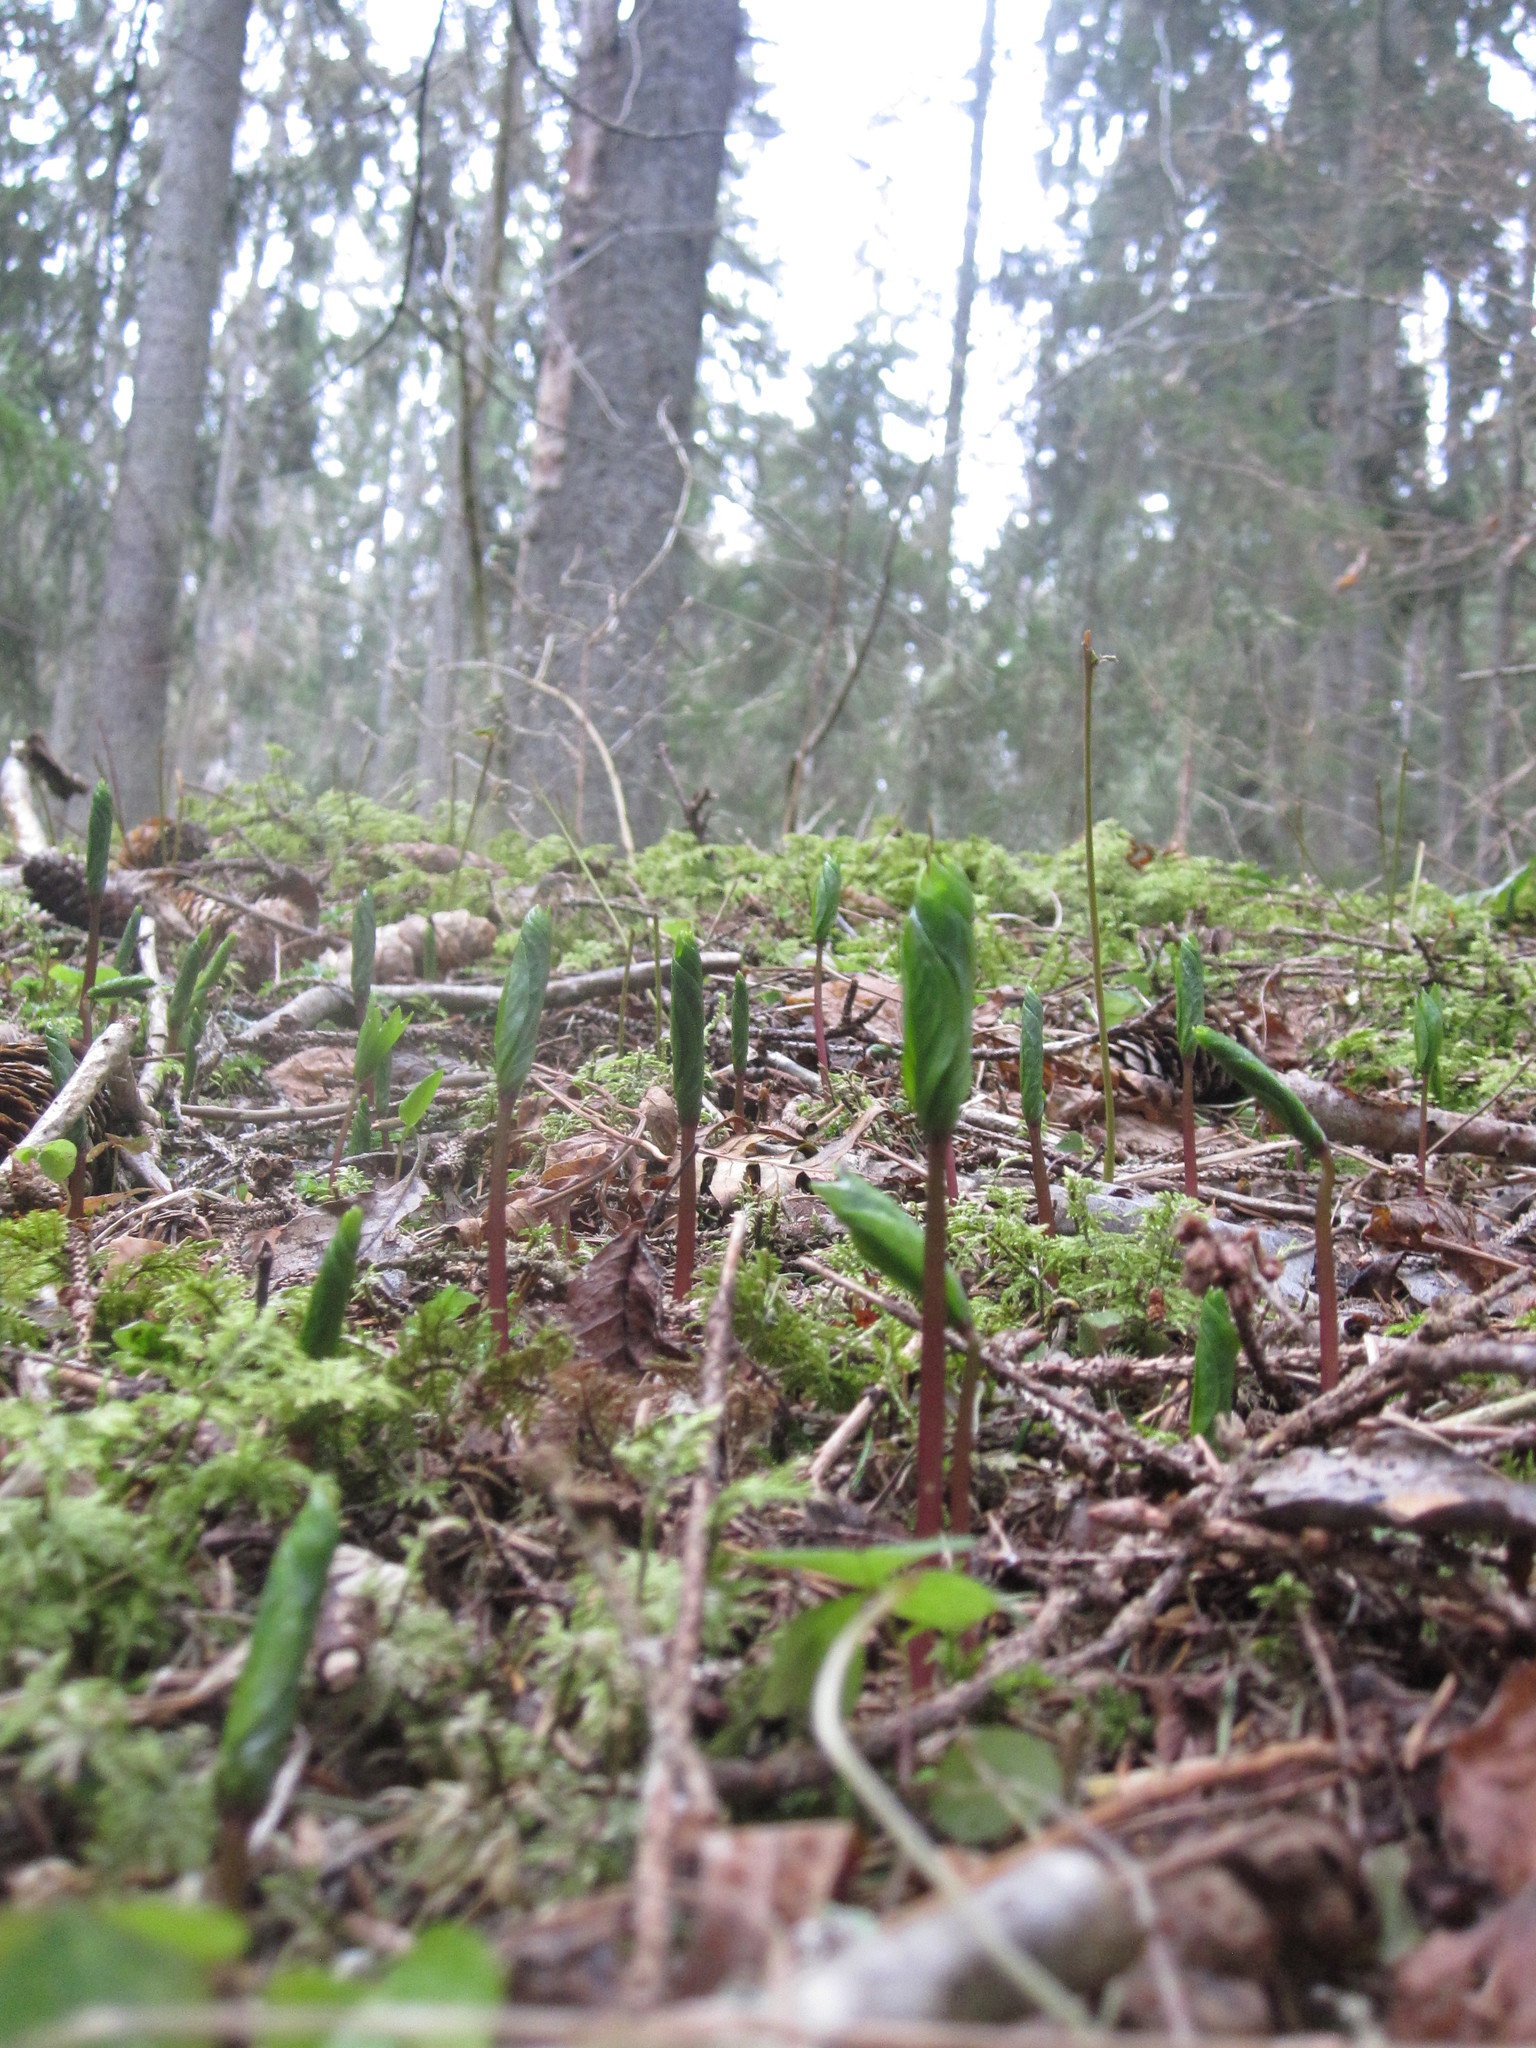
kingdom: Plantae
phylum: Tracheophyta
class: Liliopsida
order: Liliales
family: Melanthiaceae
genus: Paris
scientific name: Paris quadrifolia
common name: Herb-paris
